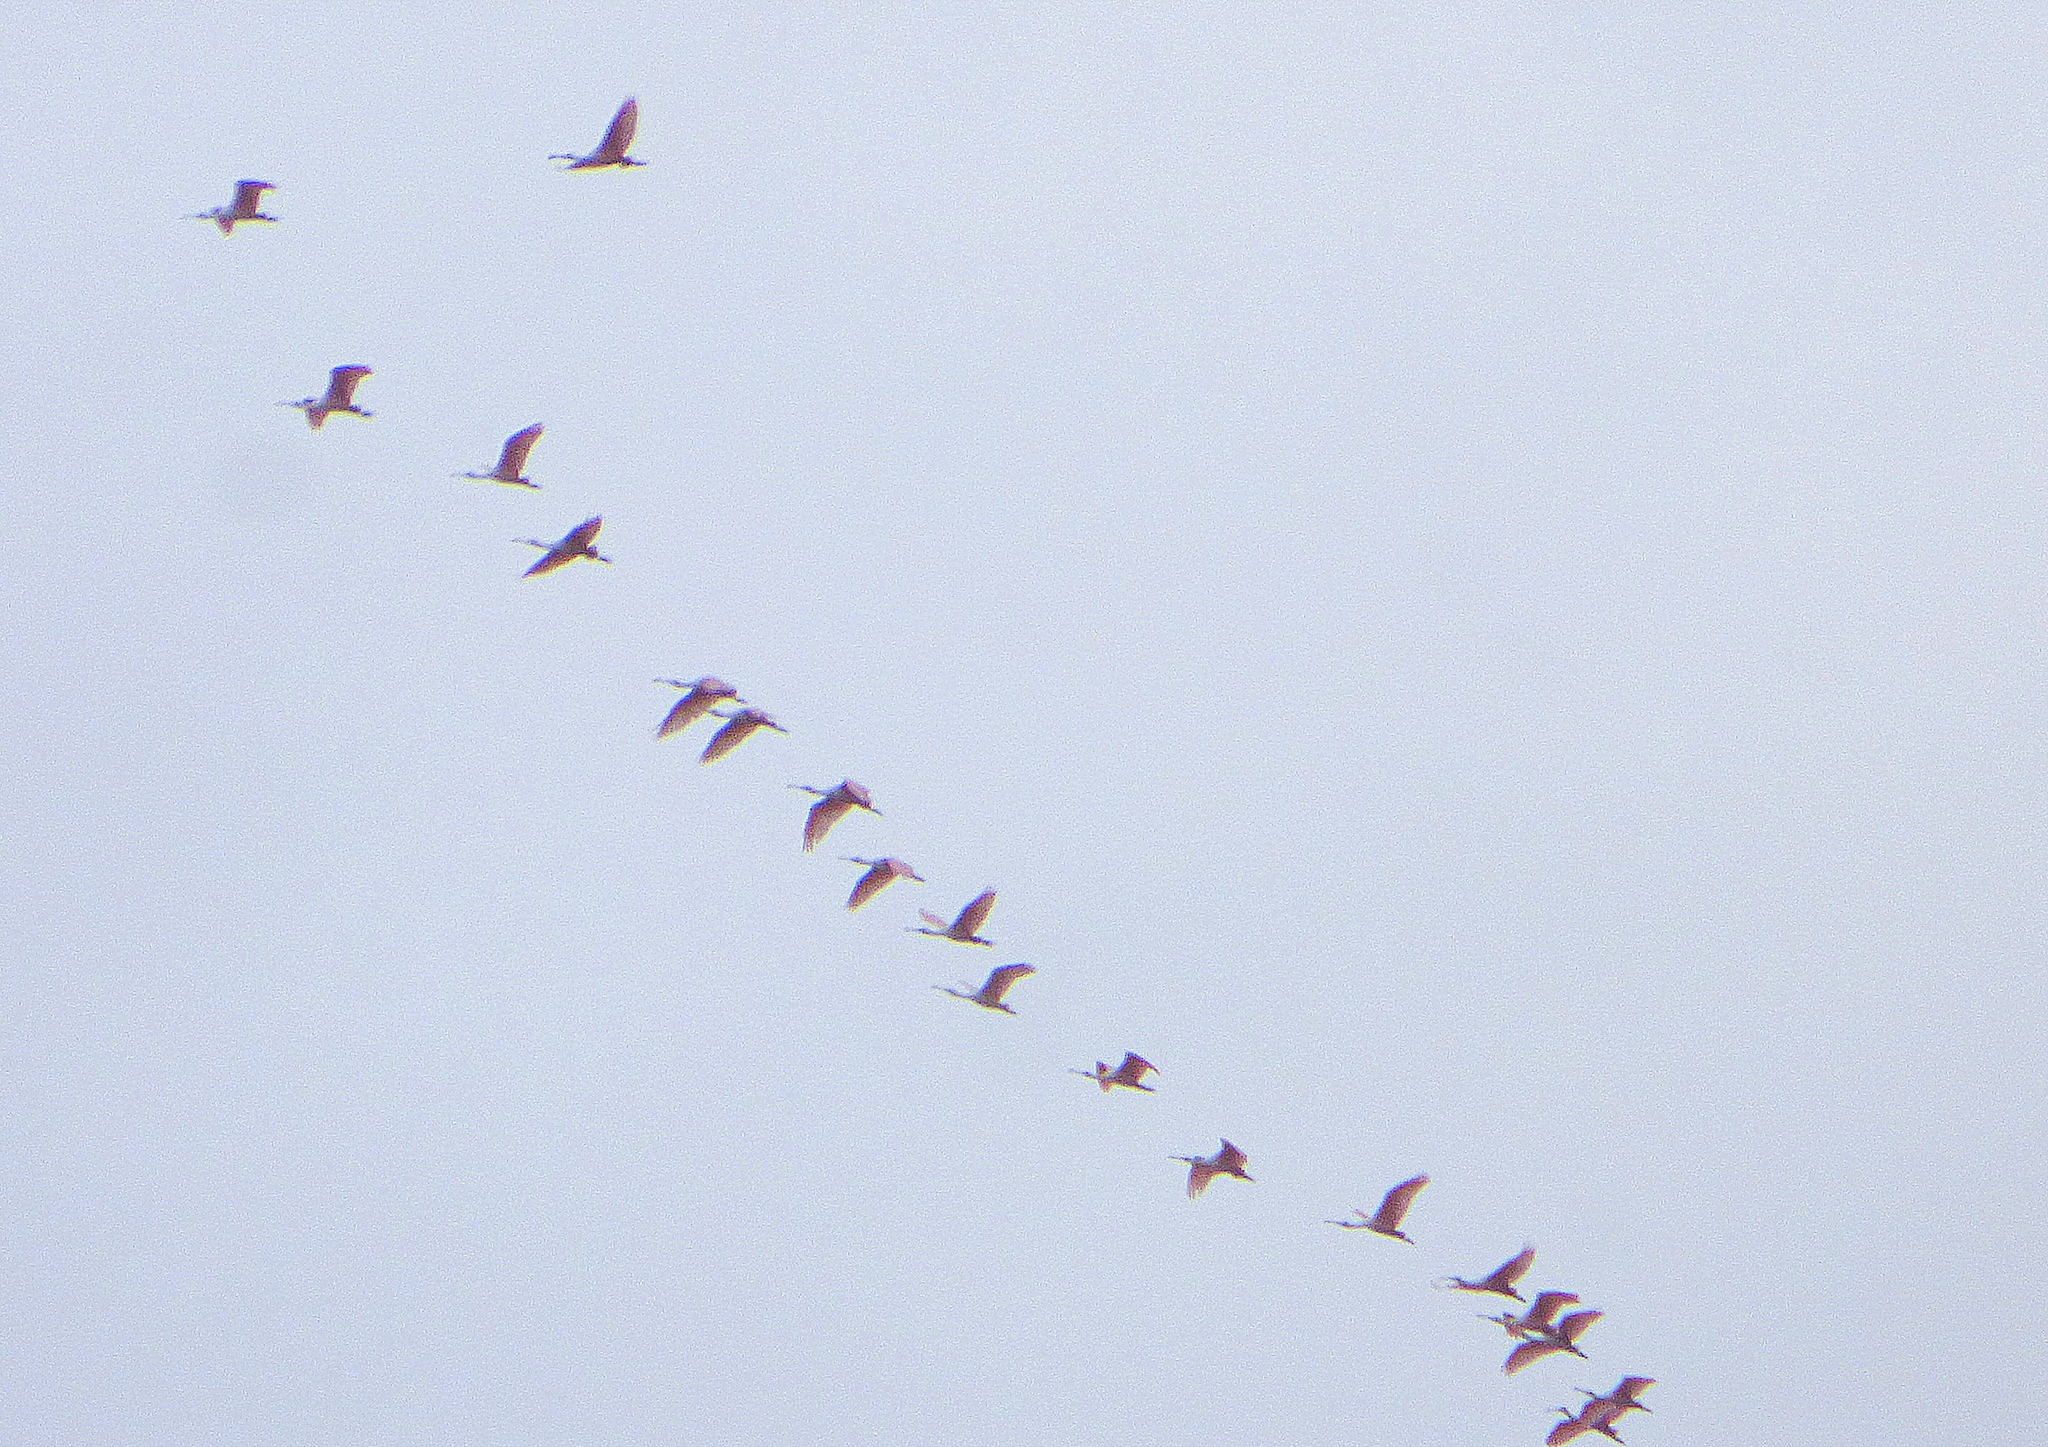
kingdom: Animalia
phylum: Chordata
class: Aves
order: Pelecaniformes
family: Threskiornithidae
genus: Platalea
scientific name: Platalea ajaja
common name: Roseate spoonbill
